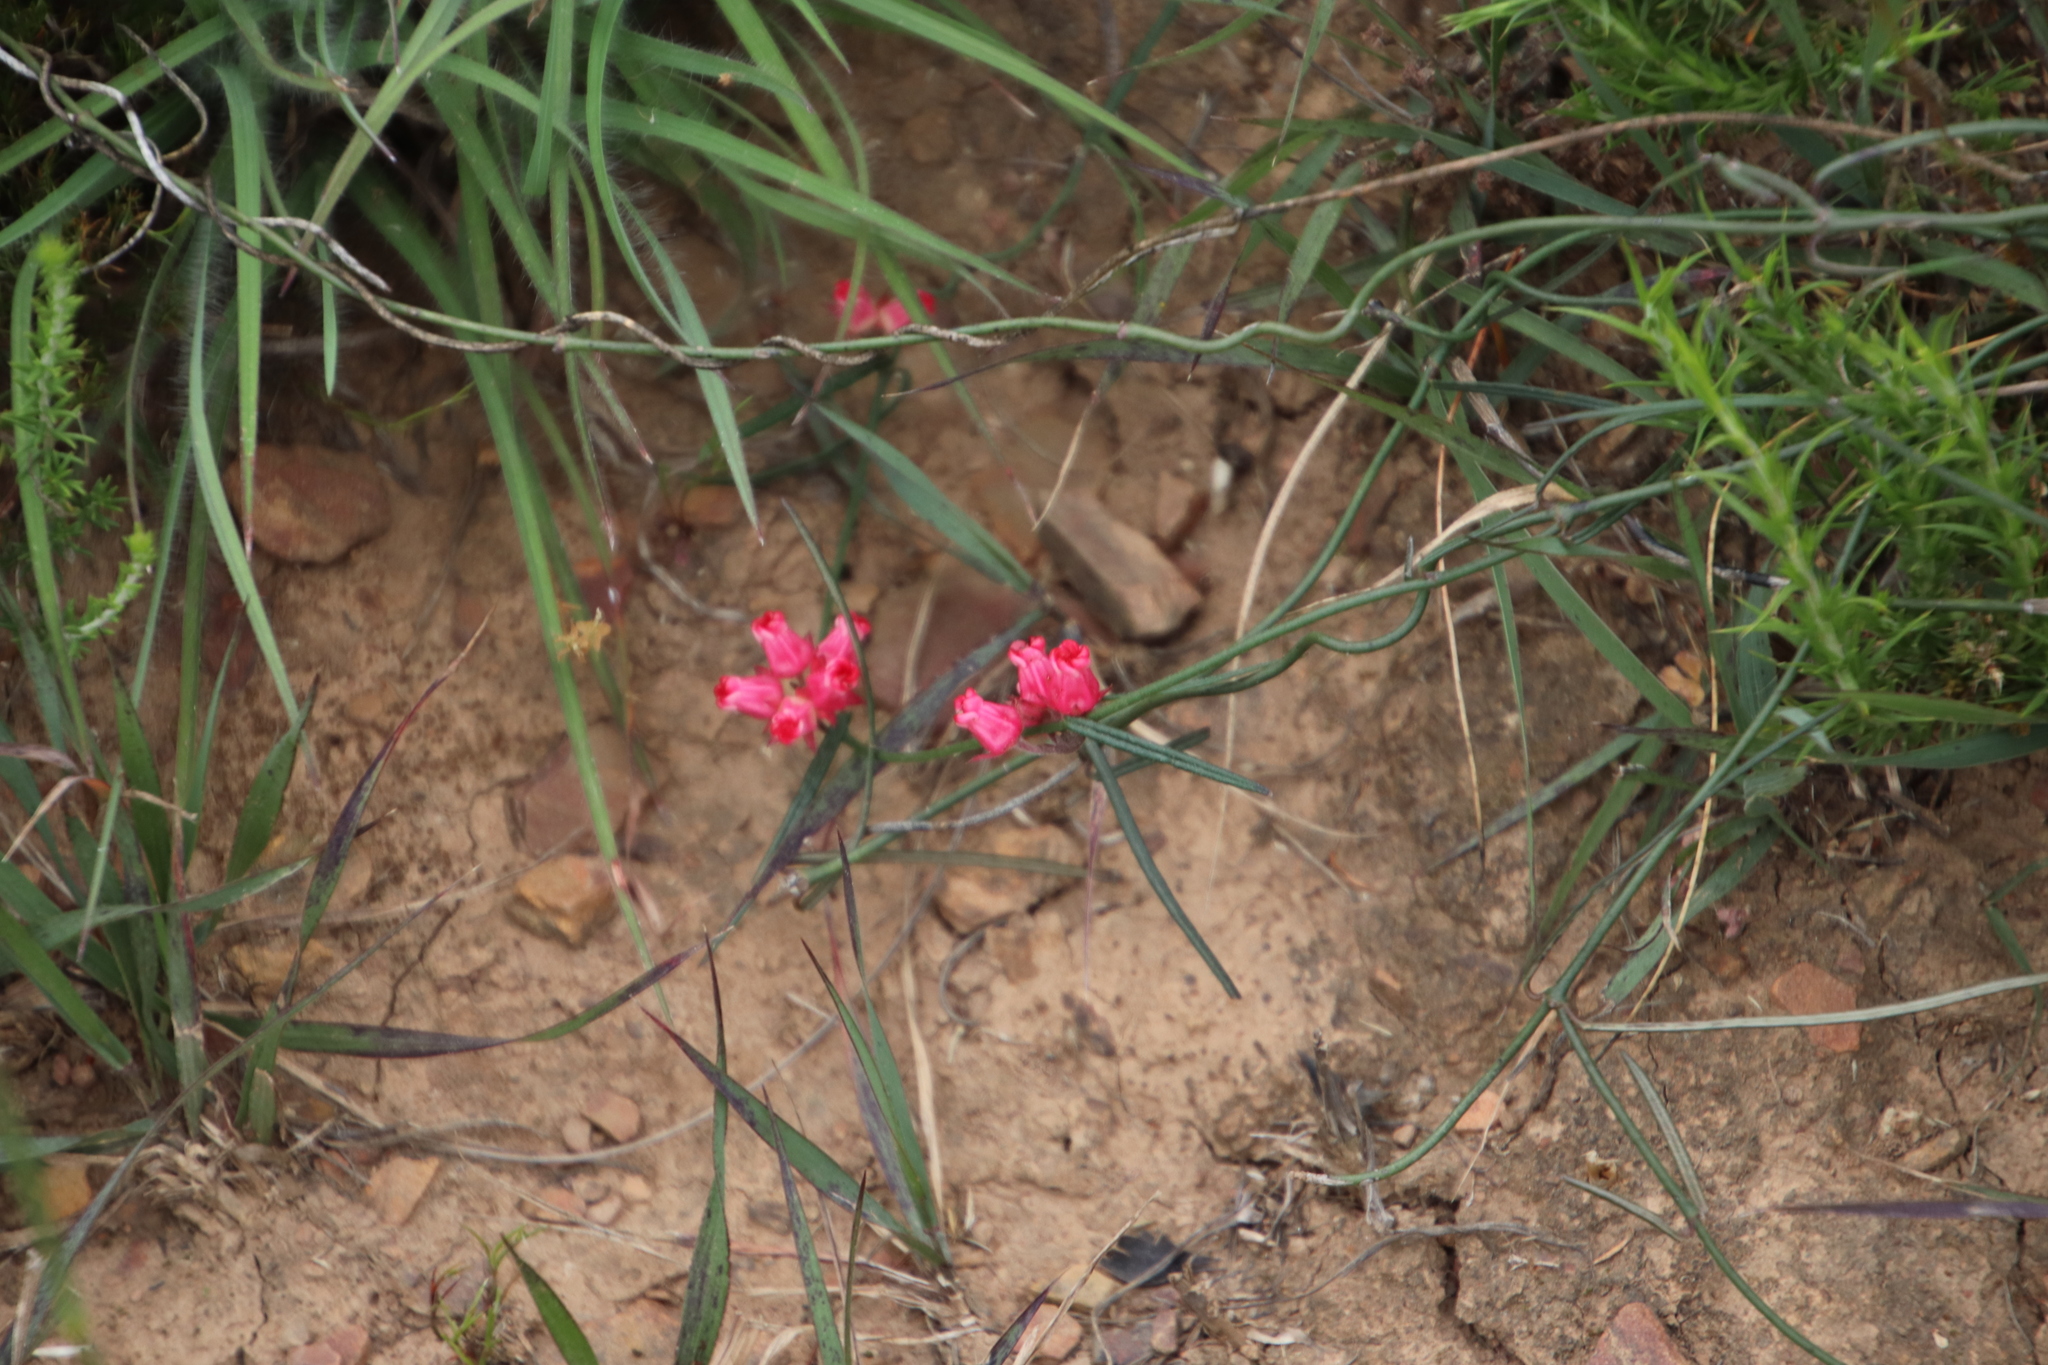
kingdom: Plantae
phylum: Tracheophyta
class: Magnoliopsida
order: Gentianales
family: Apocynaceae
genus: Microloma
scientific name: Microloma tenuifolium
